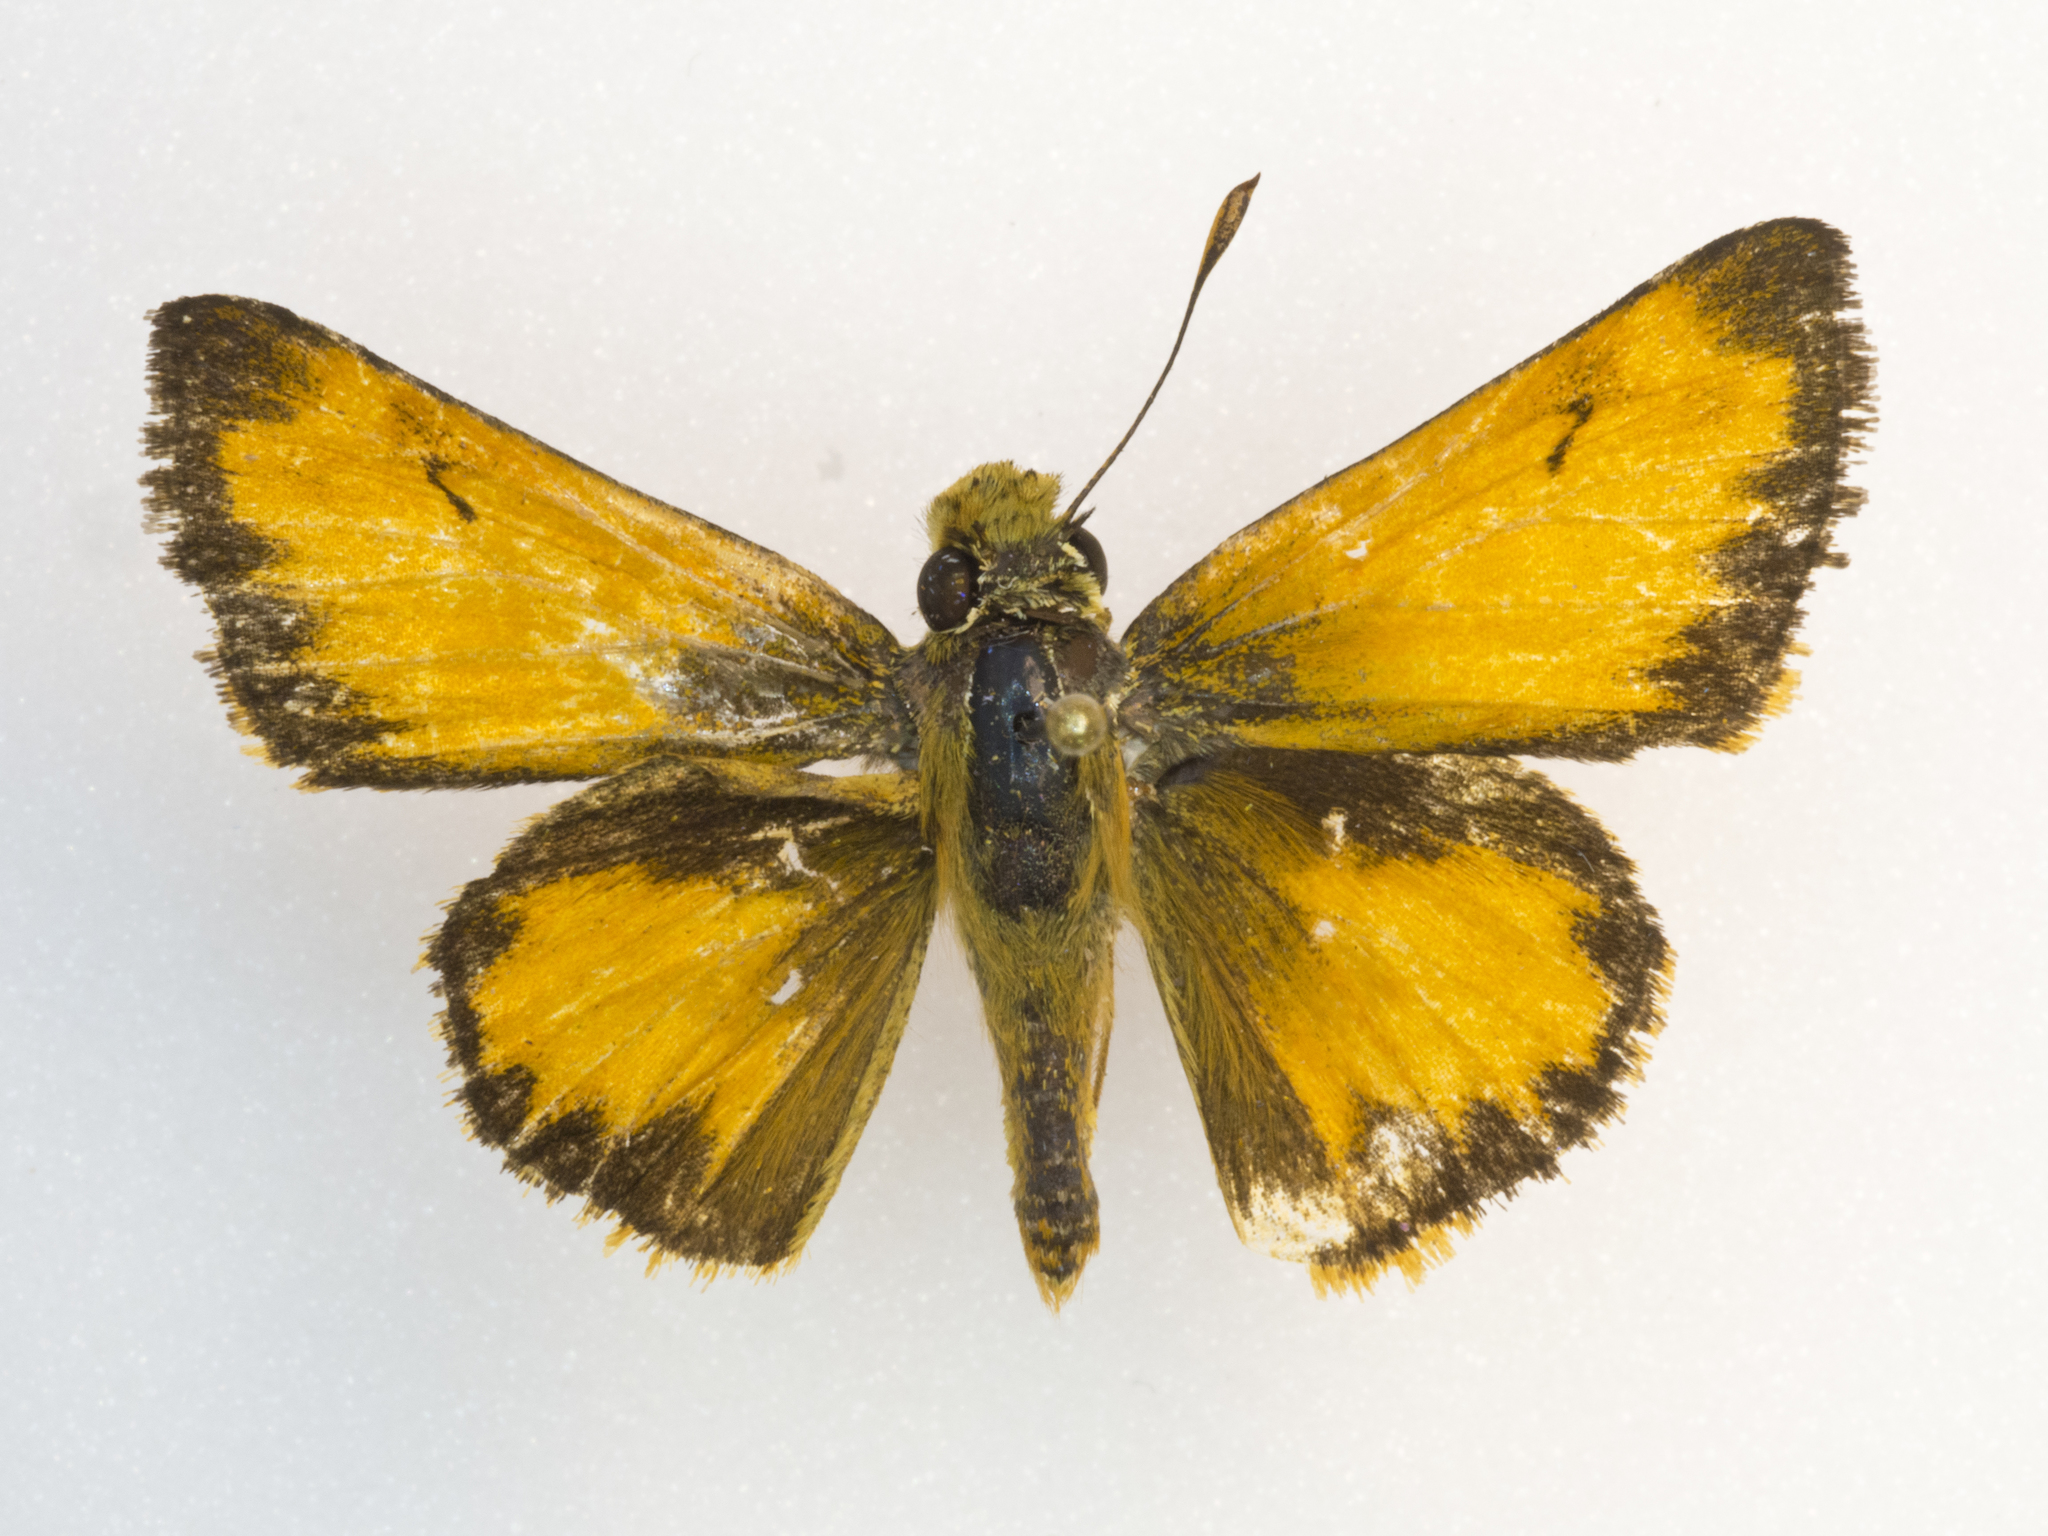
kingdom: Animalia
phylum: Arthropoda
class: Insecta
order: Lepidoptera
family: Hesperiidae
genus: Lon
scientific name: Lon taxiles
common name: Taxiles skipper
